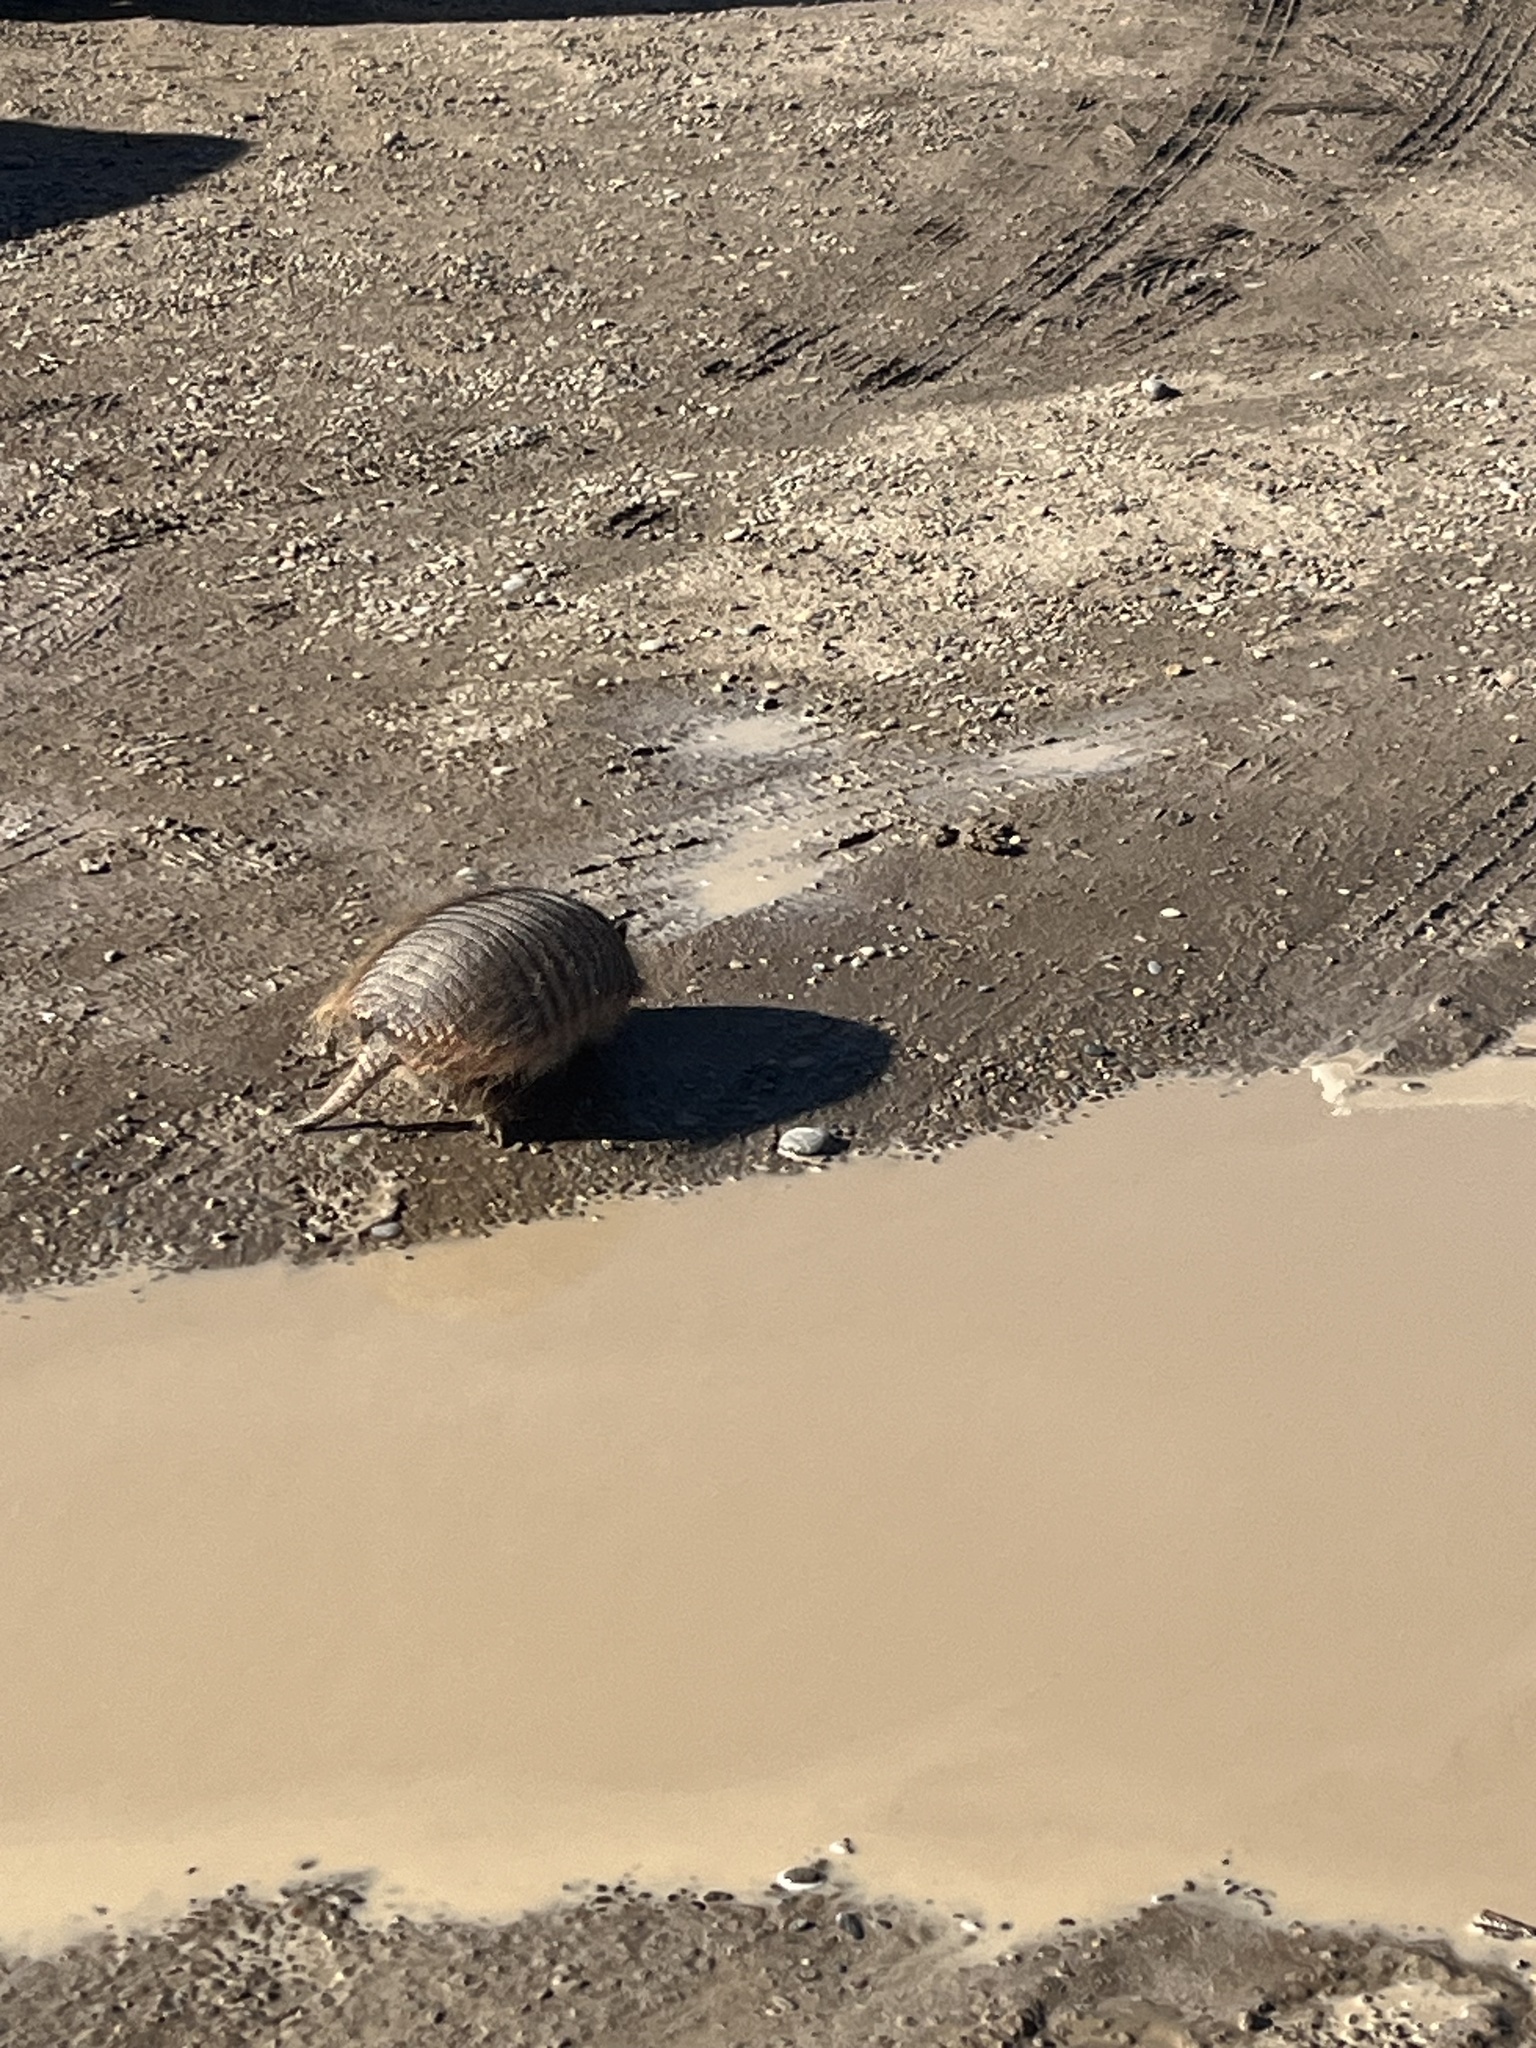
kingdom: Animalia
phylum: Chordata
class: Mammalia
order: Cingulata
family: Dasypodidae
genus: Chaetophractus
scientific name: Chaetophractus villosus
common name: Big hairy armadillo
